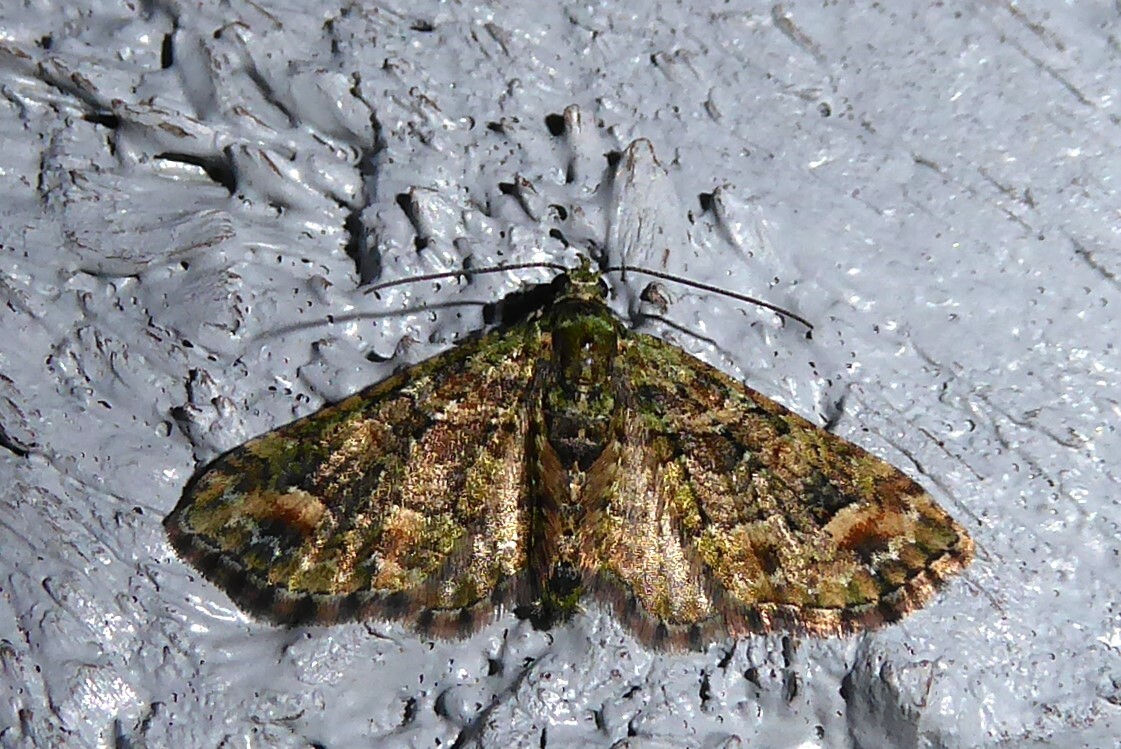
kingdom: Animalia
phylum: Arthropoda
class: Insecta
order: Lepidoptera
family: Geometridae
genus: Idaea
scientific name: Idaea mutanda
